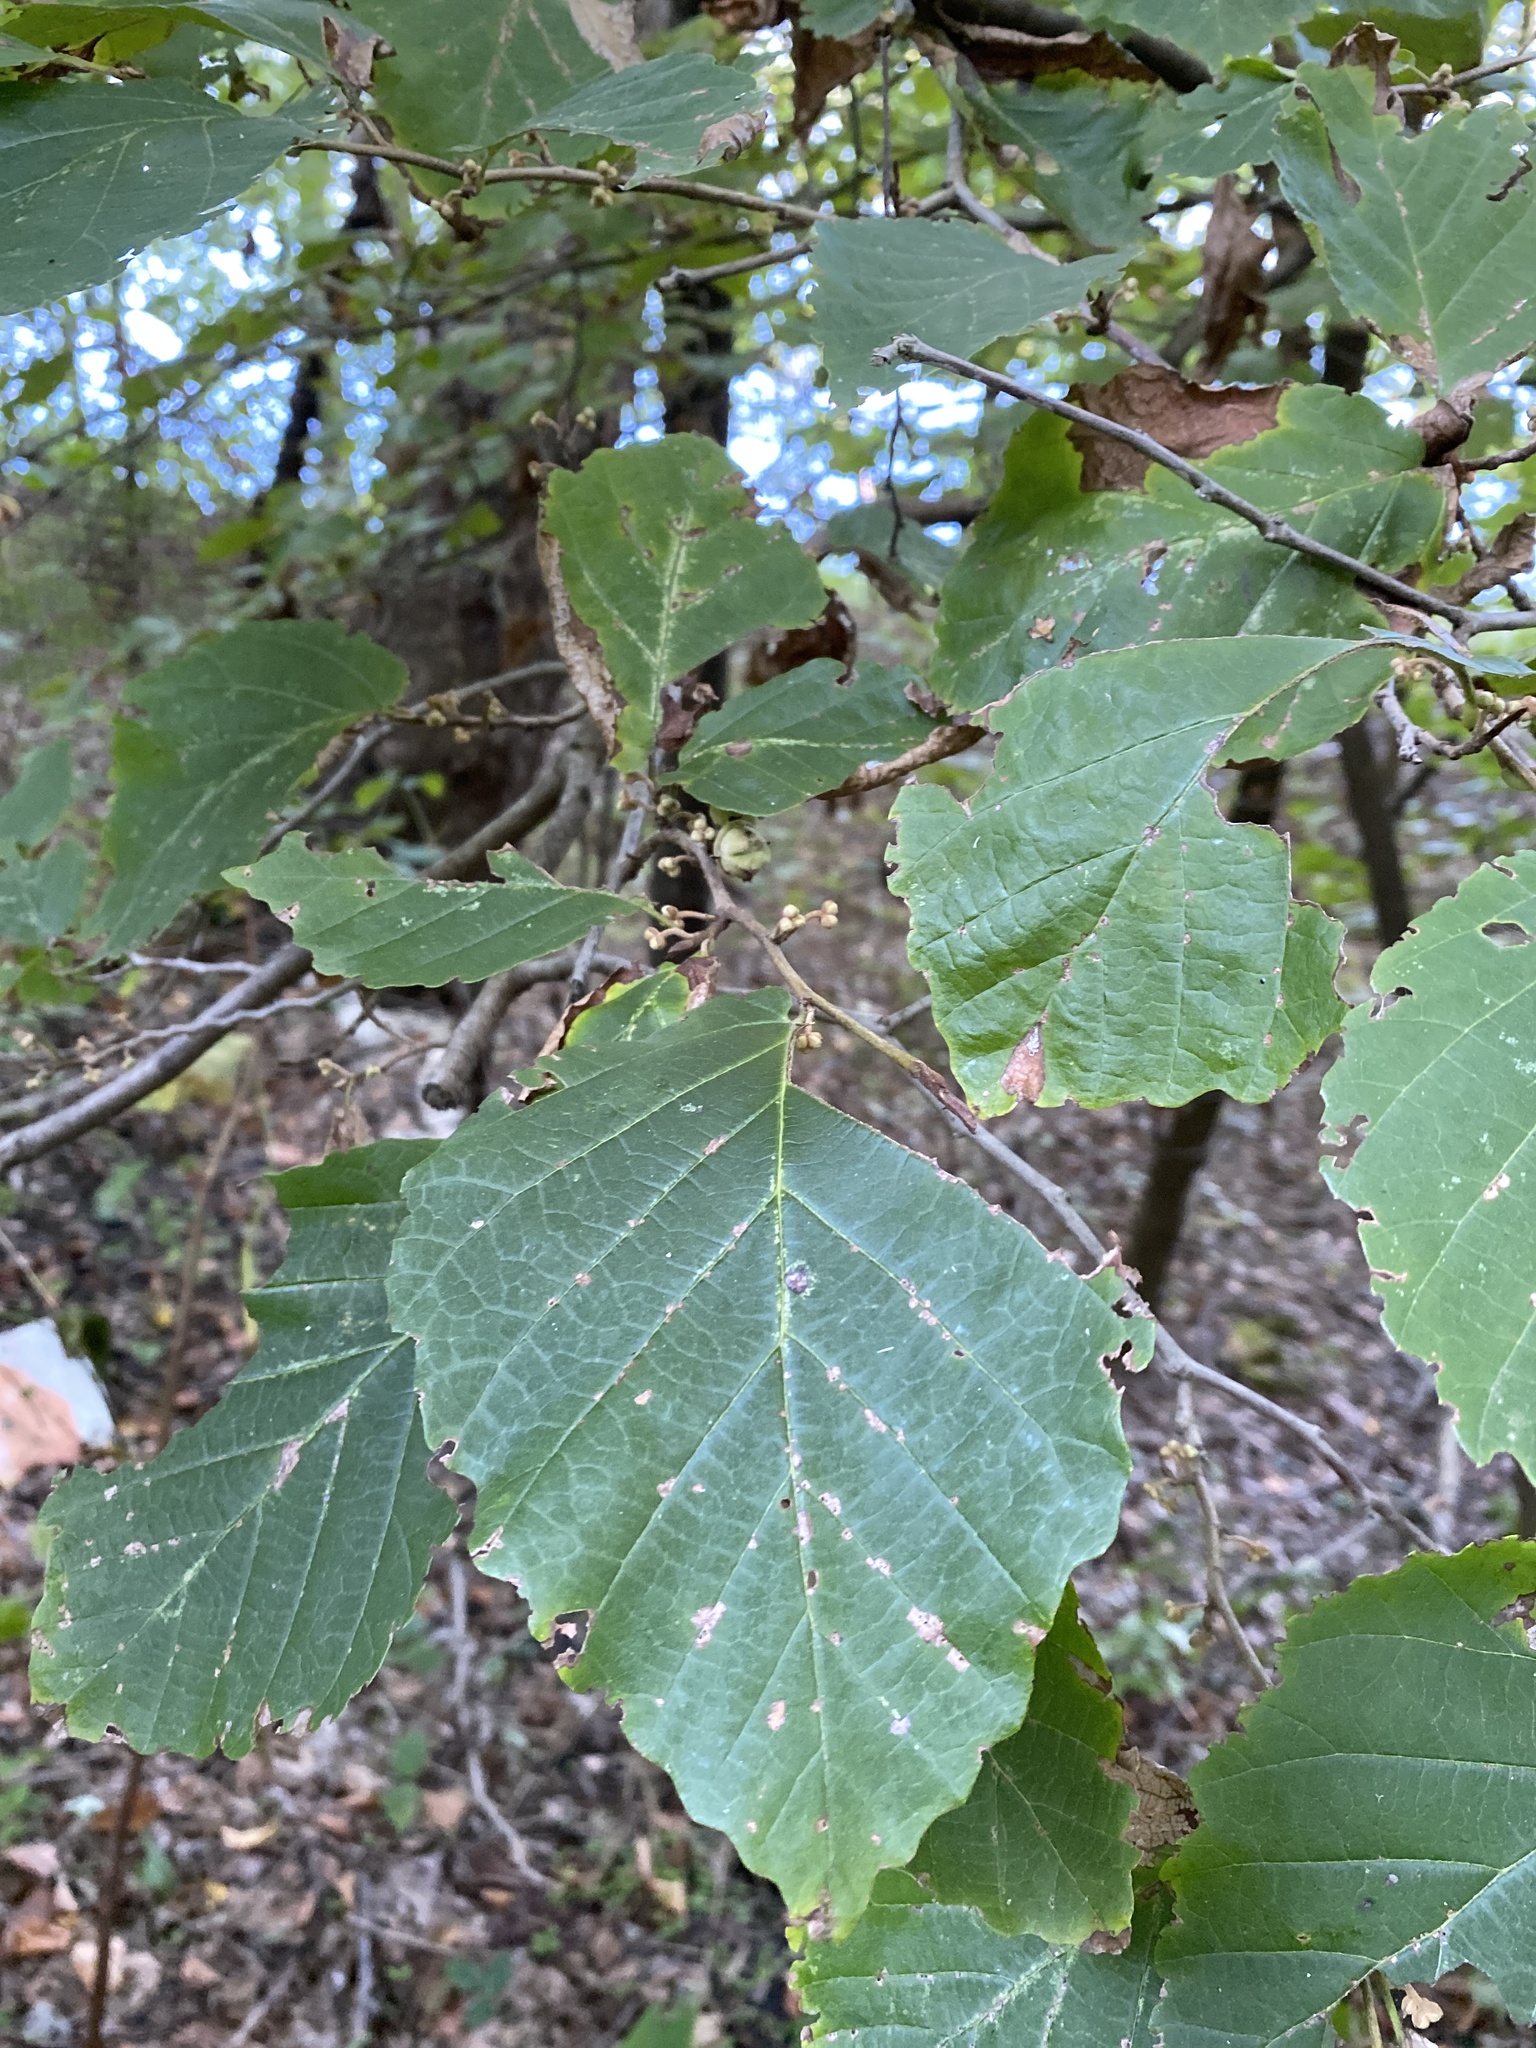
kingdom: Plantae
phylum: Tracheophyta
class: Magnoliopsida
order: Saxifragales
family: Hamamelidaceae
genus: Hamamelis
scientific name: Hamamelis virginiana
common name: Witch-hazel
